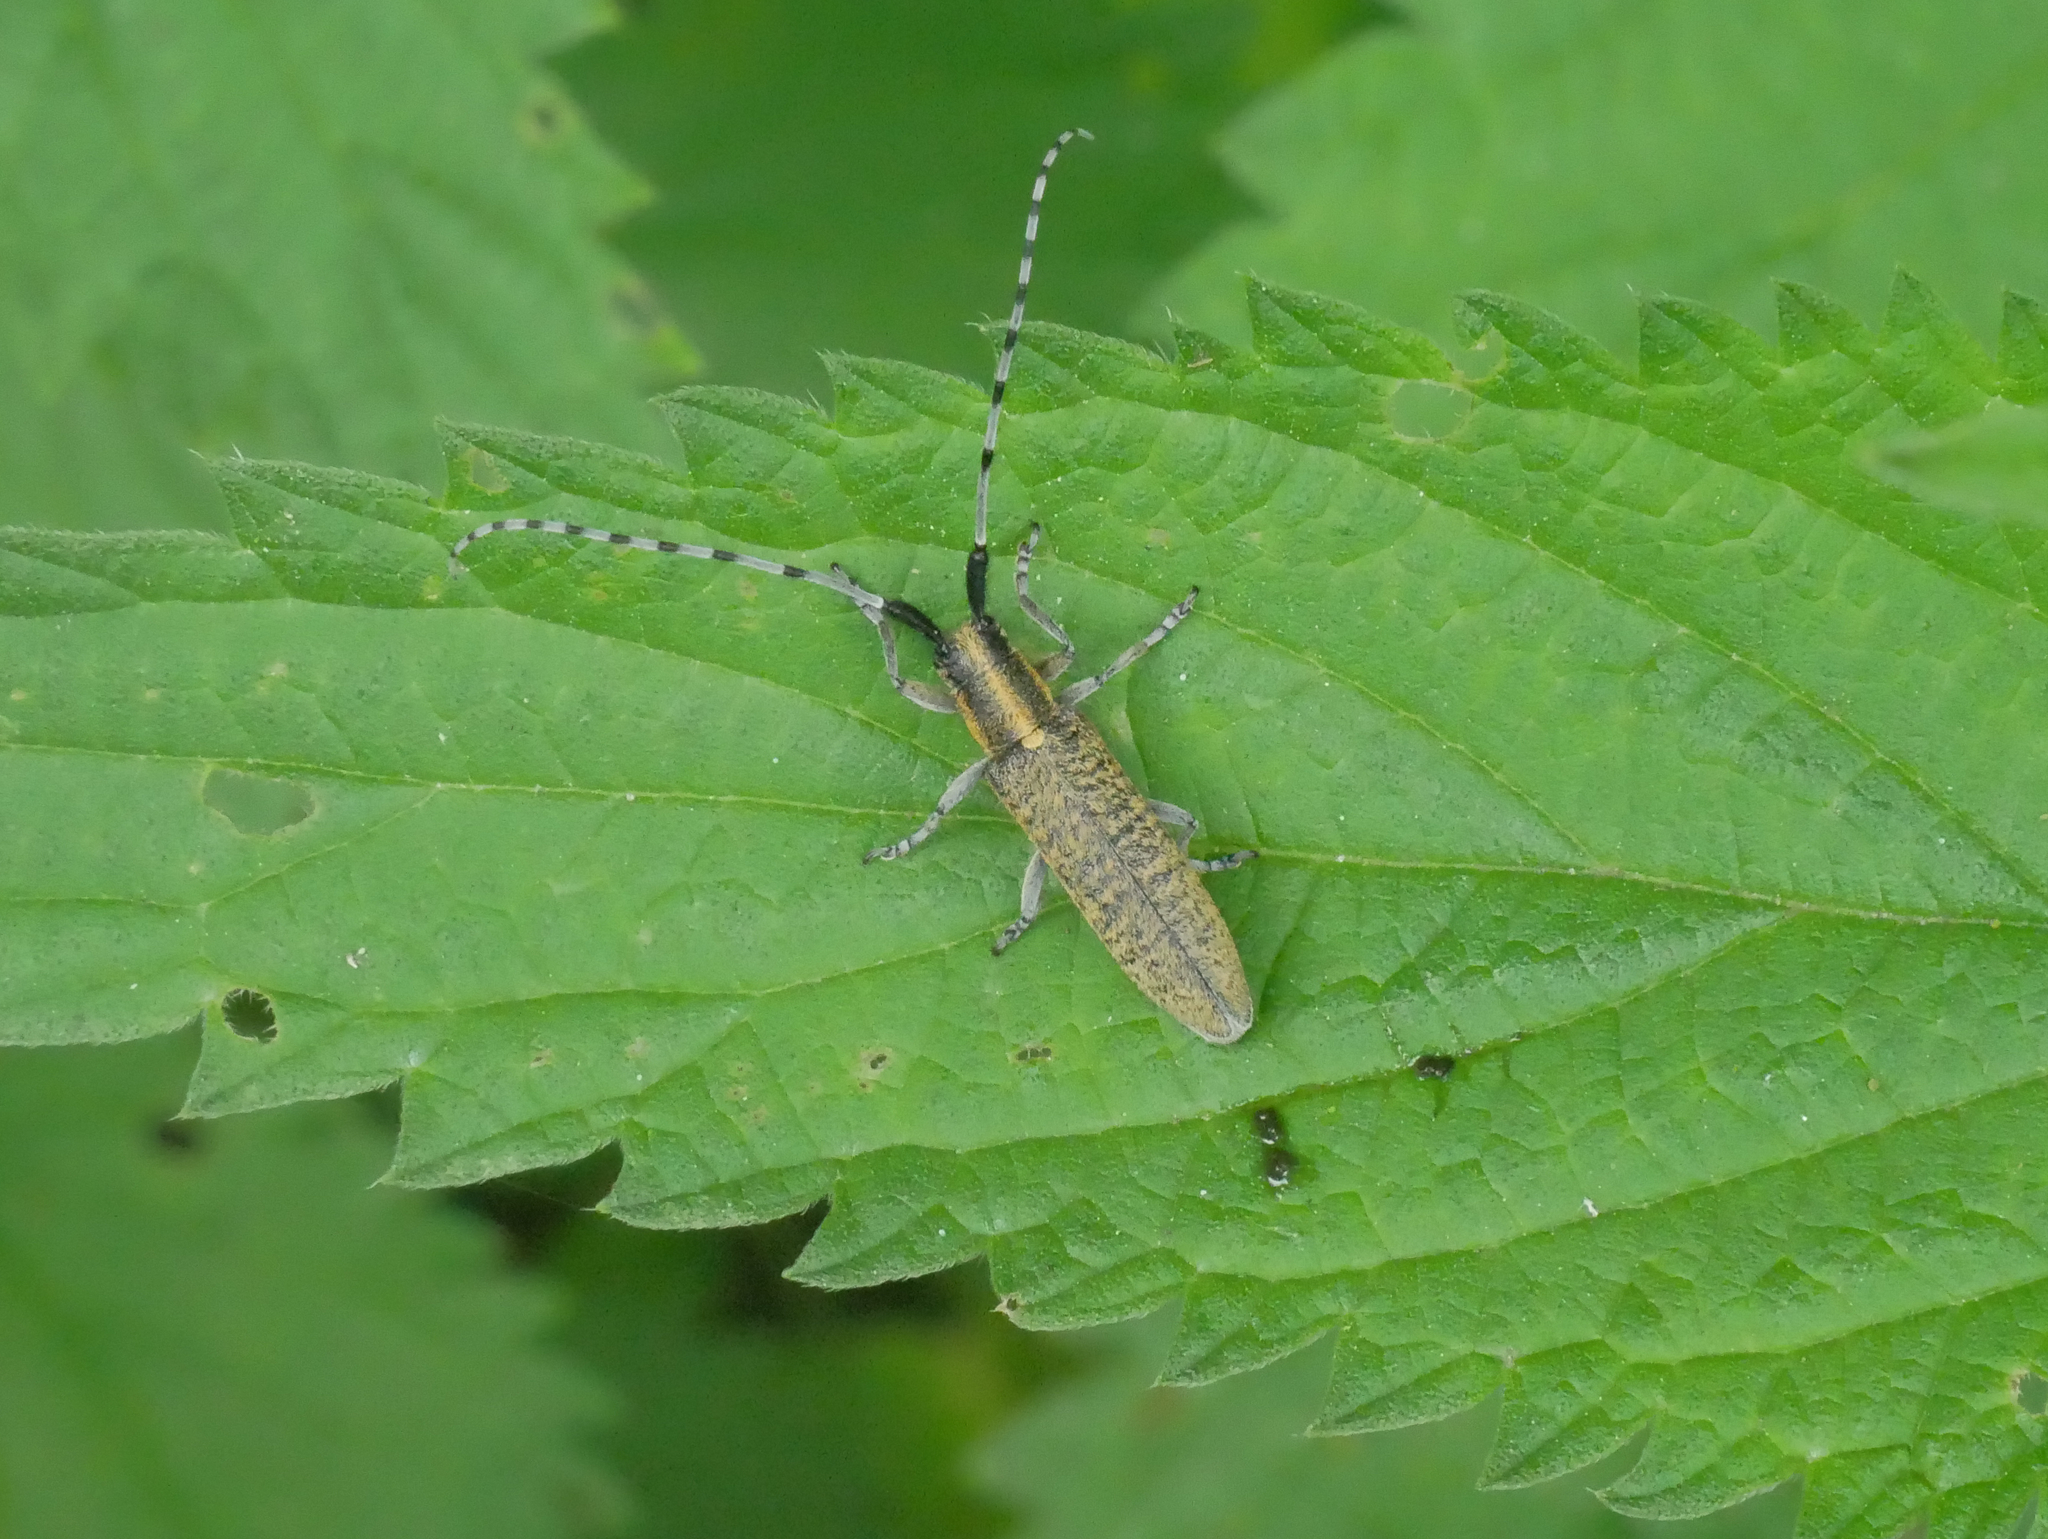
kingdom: Animalia
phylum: Arthropoda
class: Insecta
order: Coleoptera
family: Cerambycidae
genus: Agapanthia
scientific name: Agapanthia villosoviridescens
